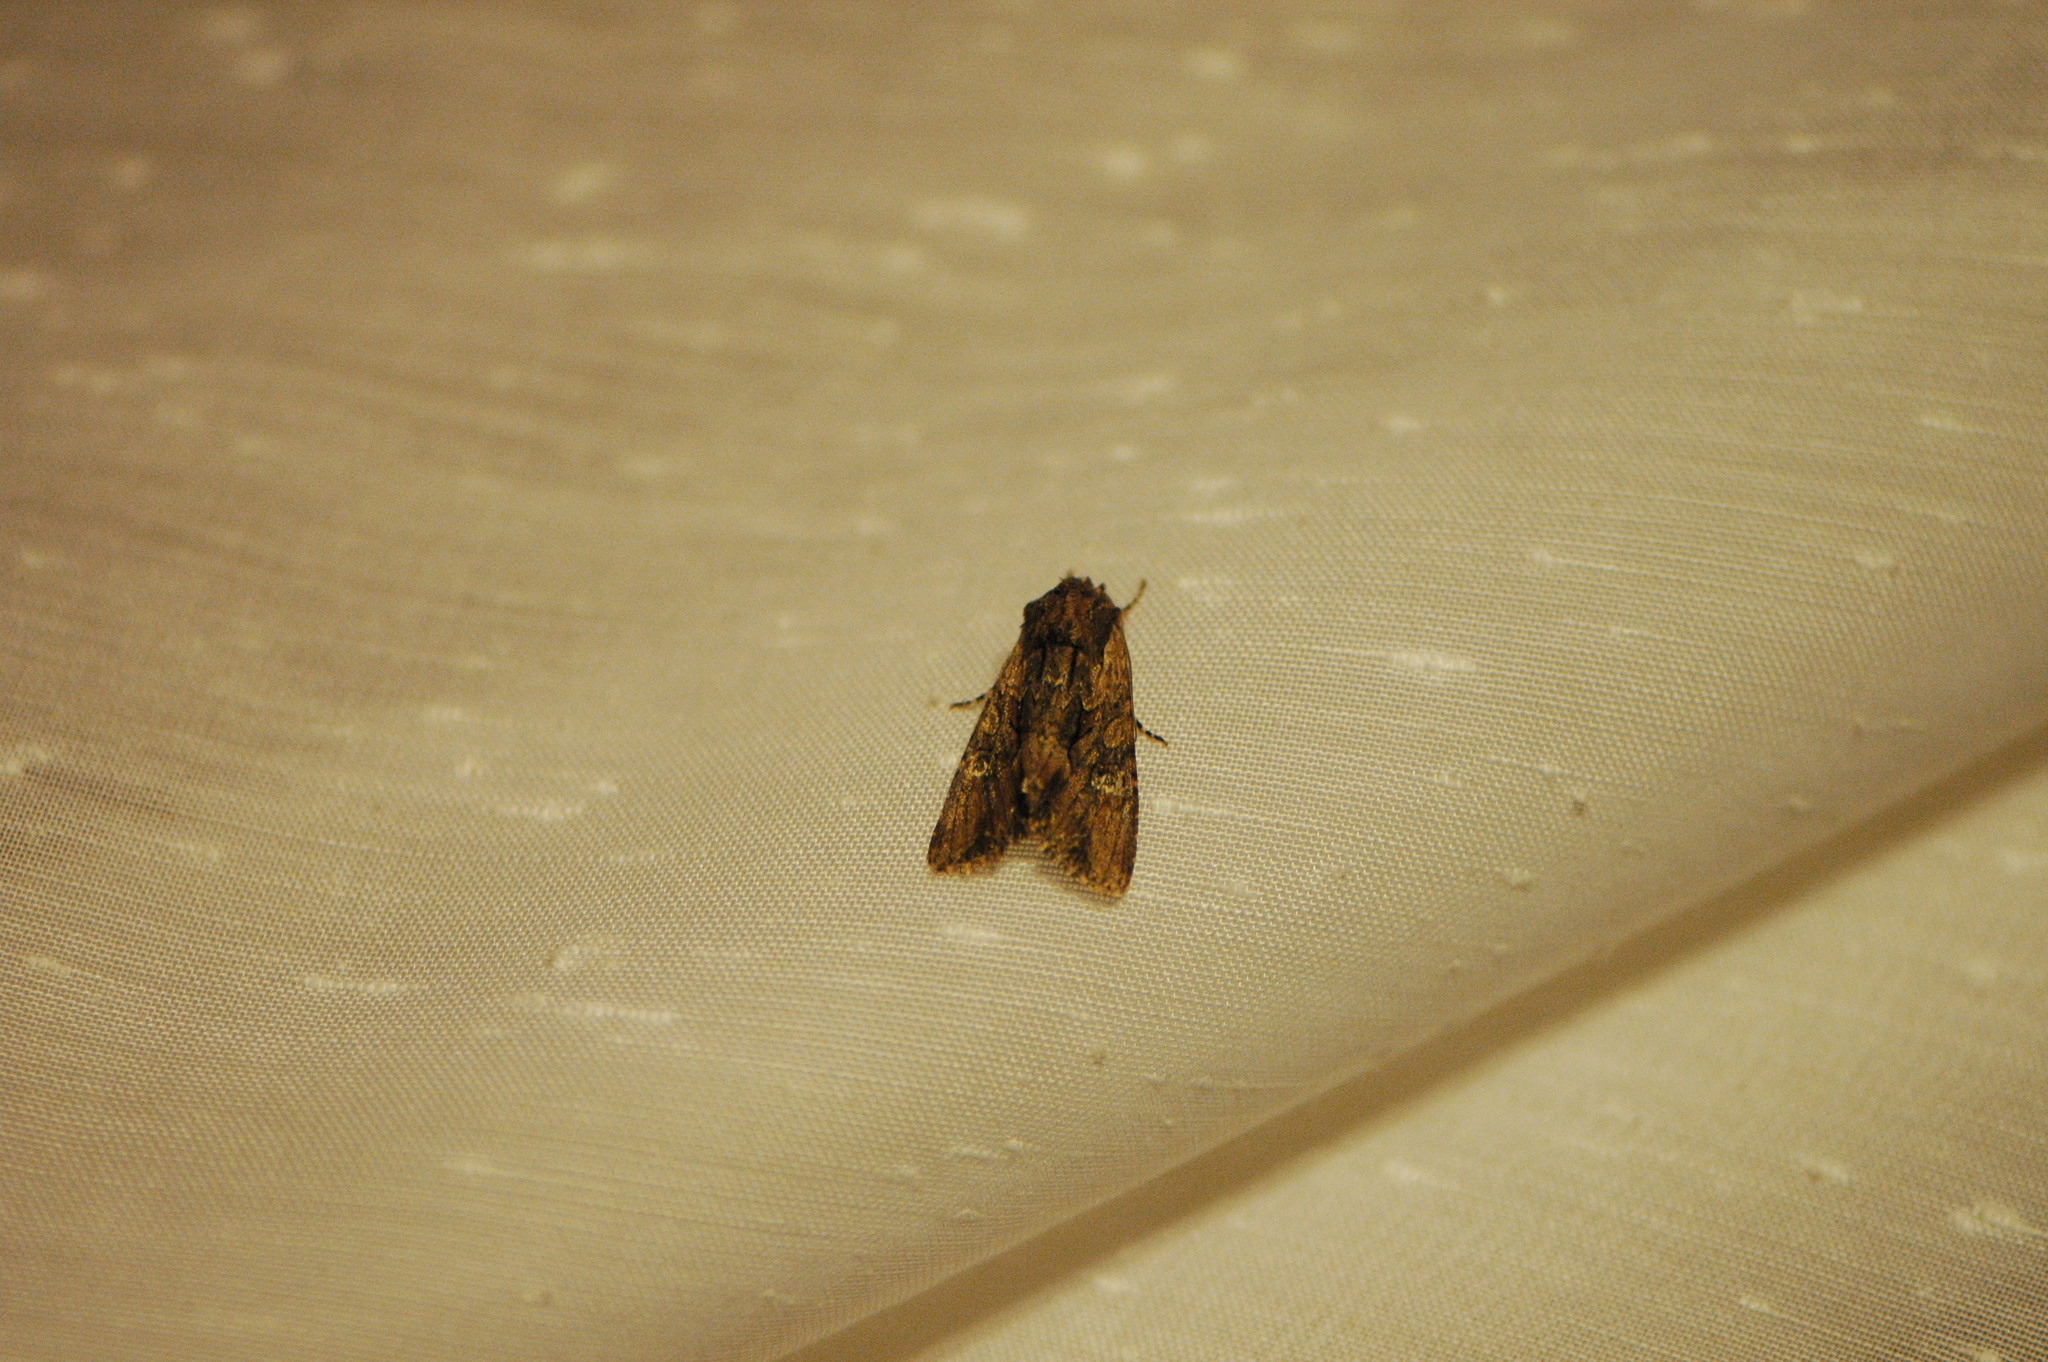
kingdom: Animalia
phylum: Arthropoda
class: Insecta
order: Lepidoptera
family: Noctuidae
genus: Mniotype
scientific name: Mniotype occidentalis
